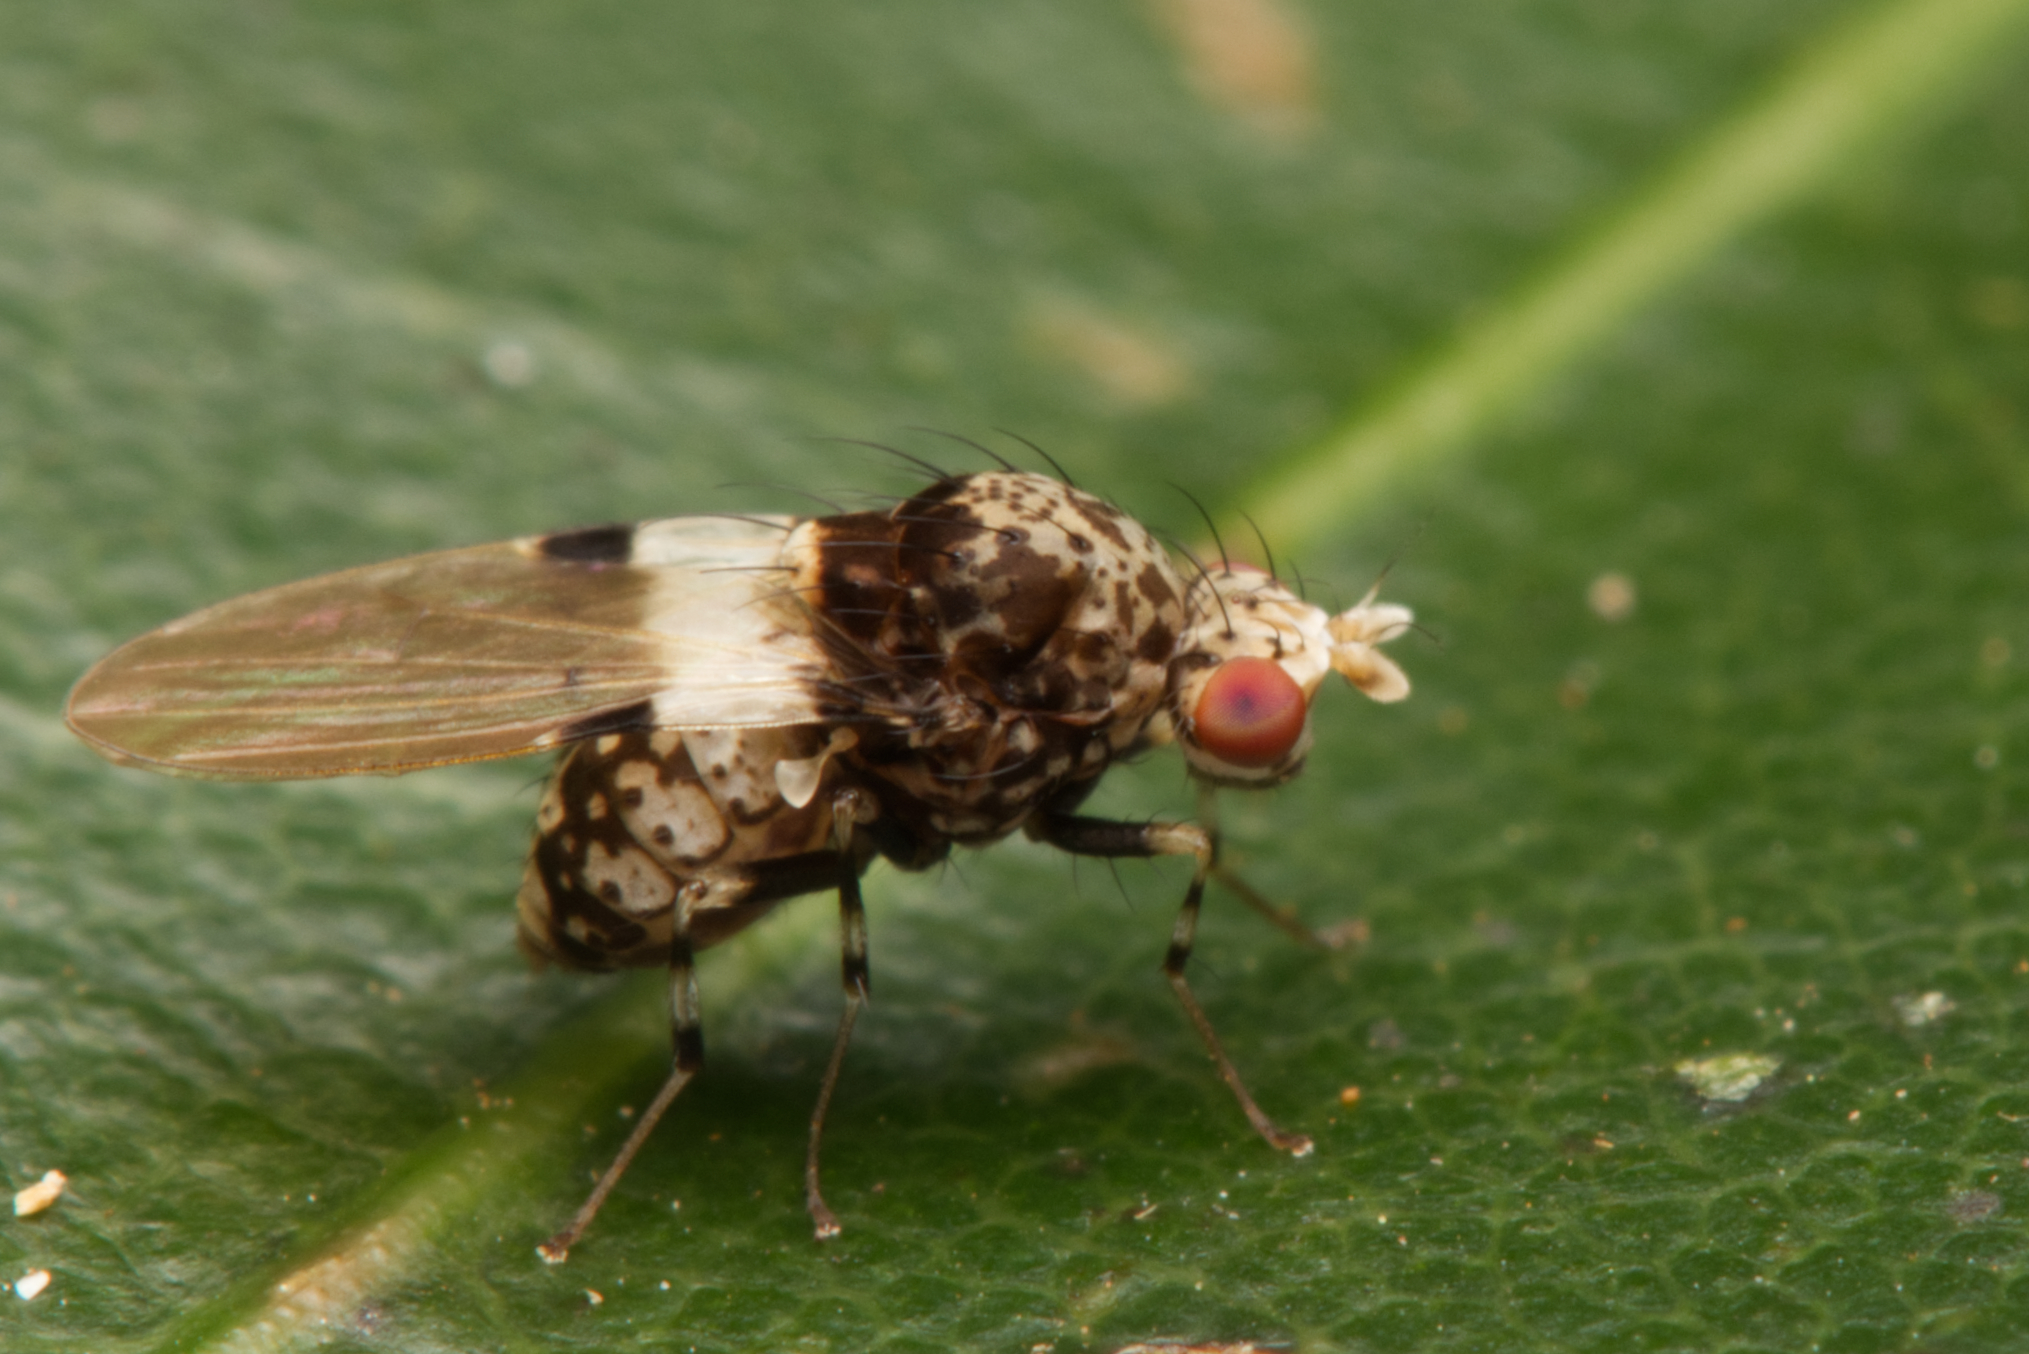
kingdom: Animalia
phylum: Arthropoda
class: Insecta
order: Diptera
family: Lauxaniidae
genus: Sapromyza
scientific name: Sapromyza pictigera
